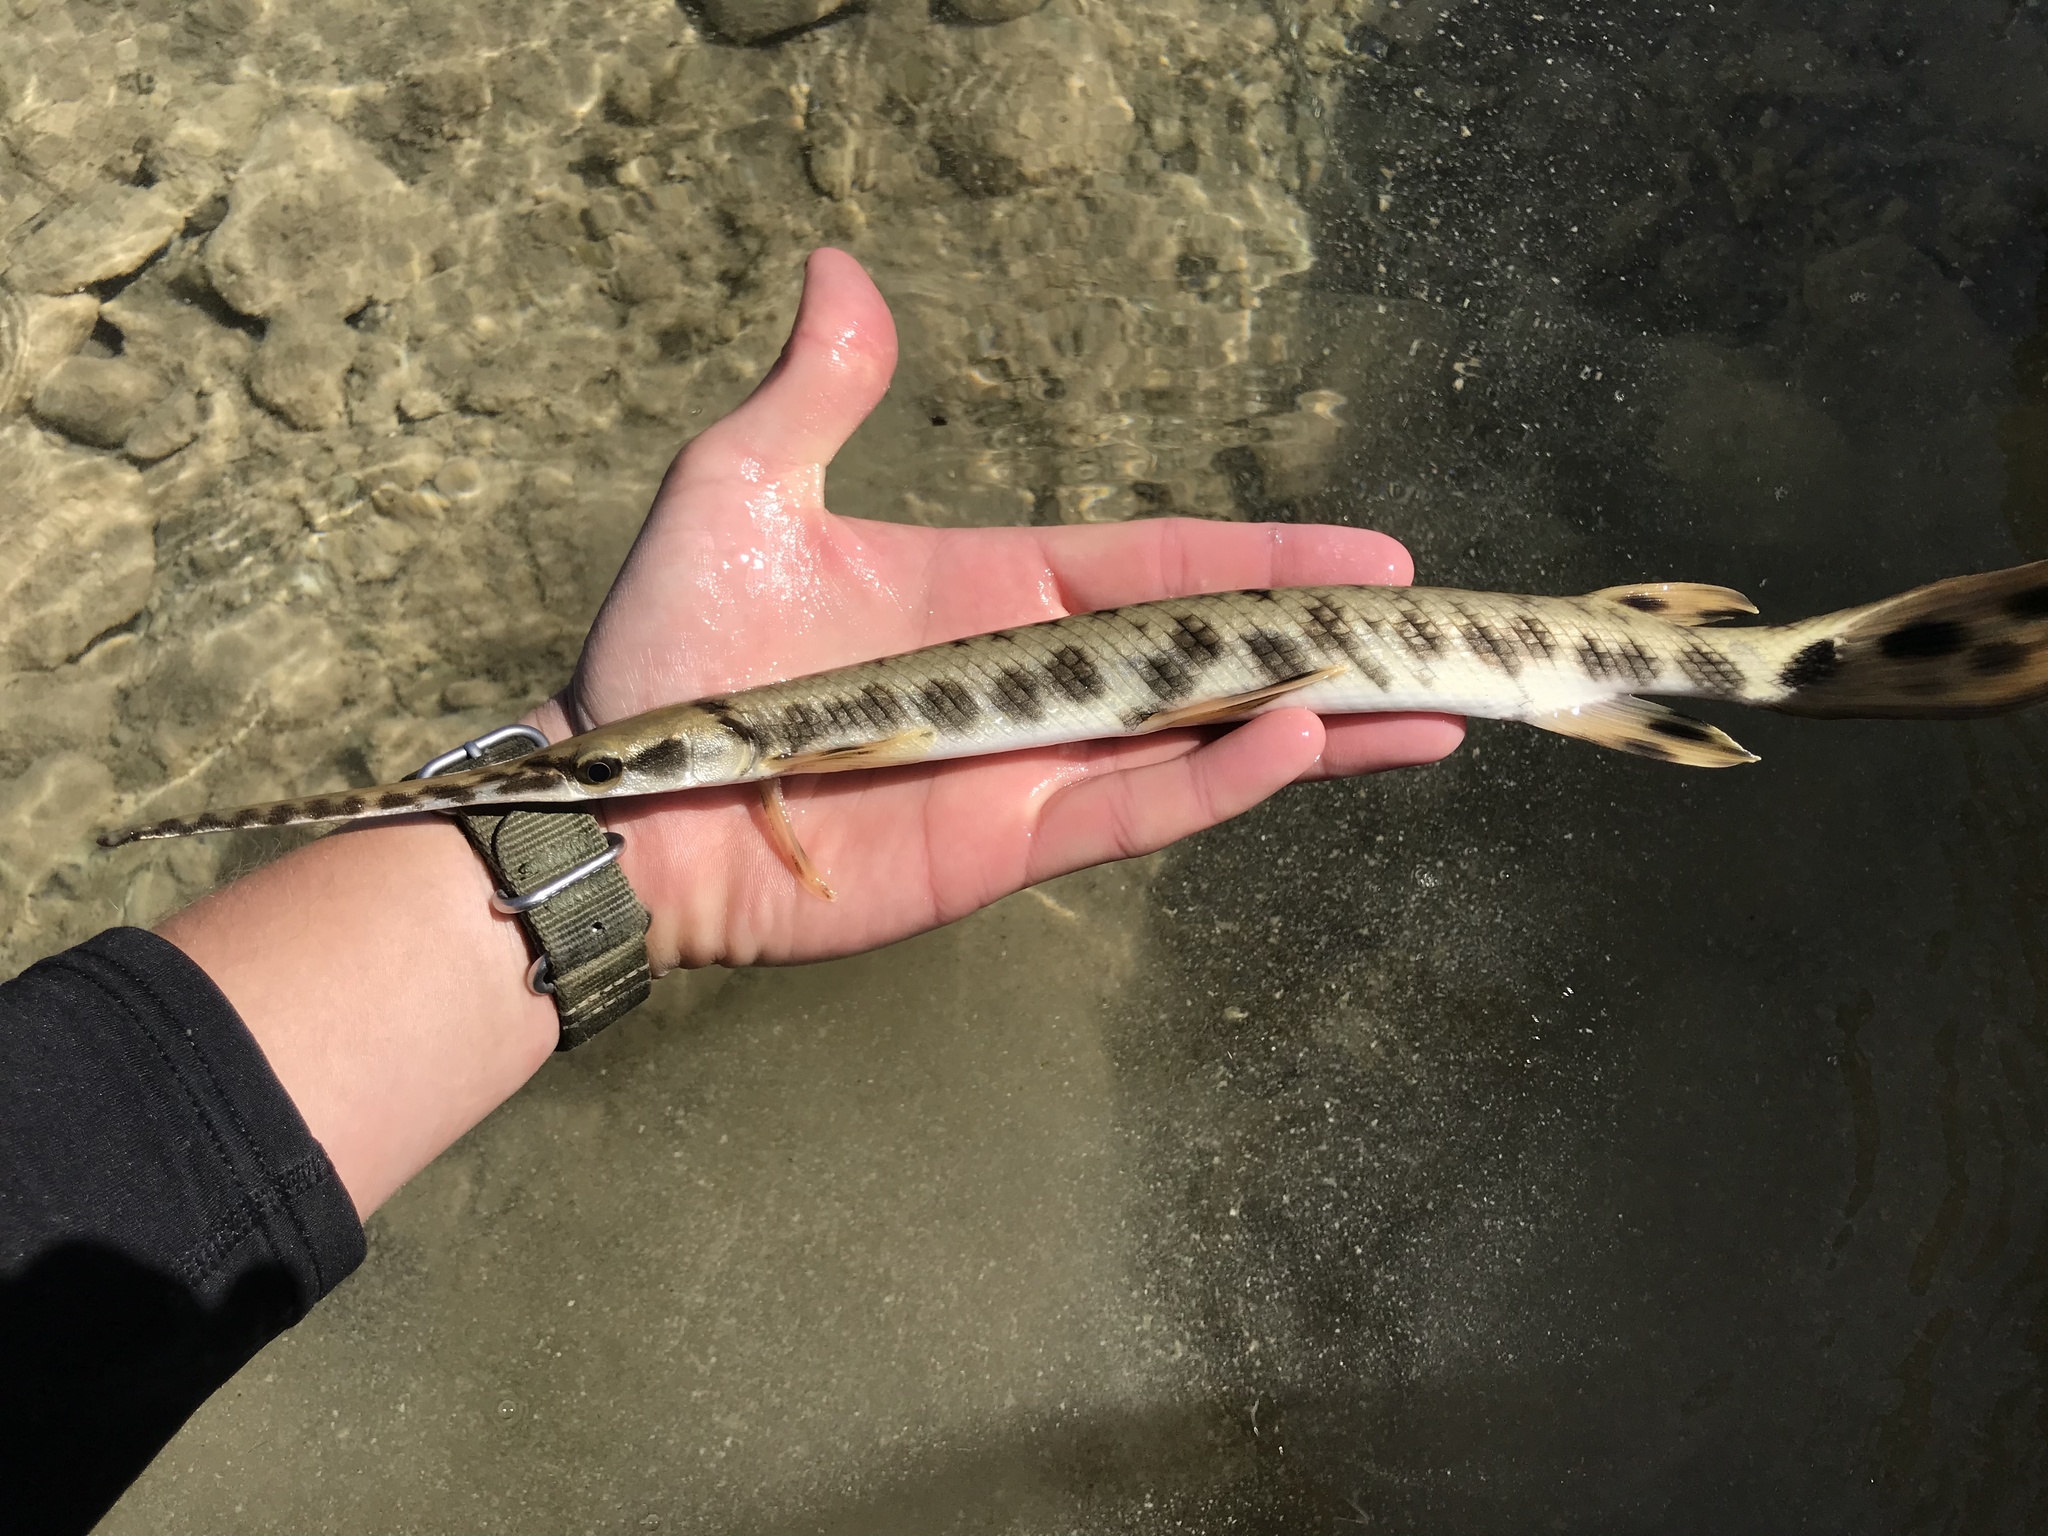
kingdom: Animalia
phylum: Chordata
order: Lepisosteiformes
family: Lepisosteidae
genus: Lepisosteus
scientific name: Lepisosteus osseus
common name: Longnose gar
